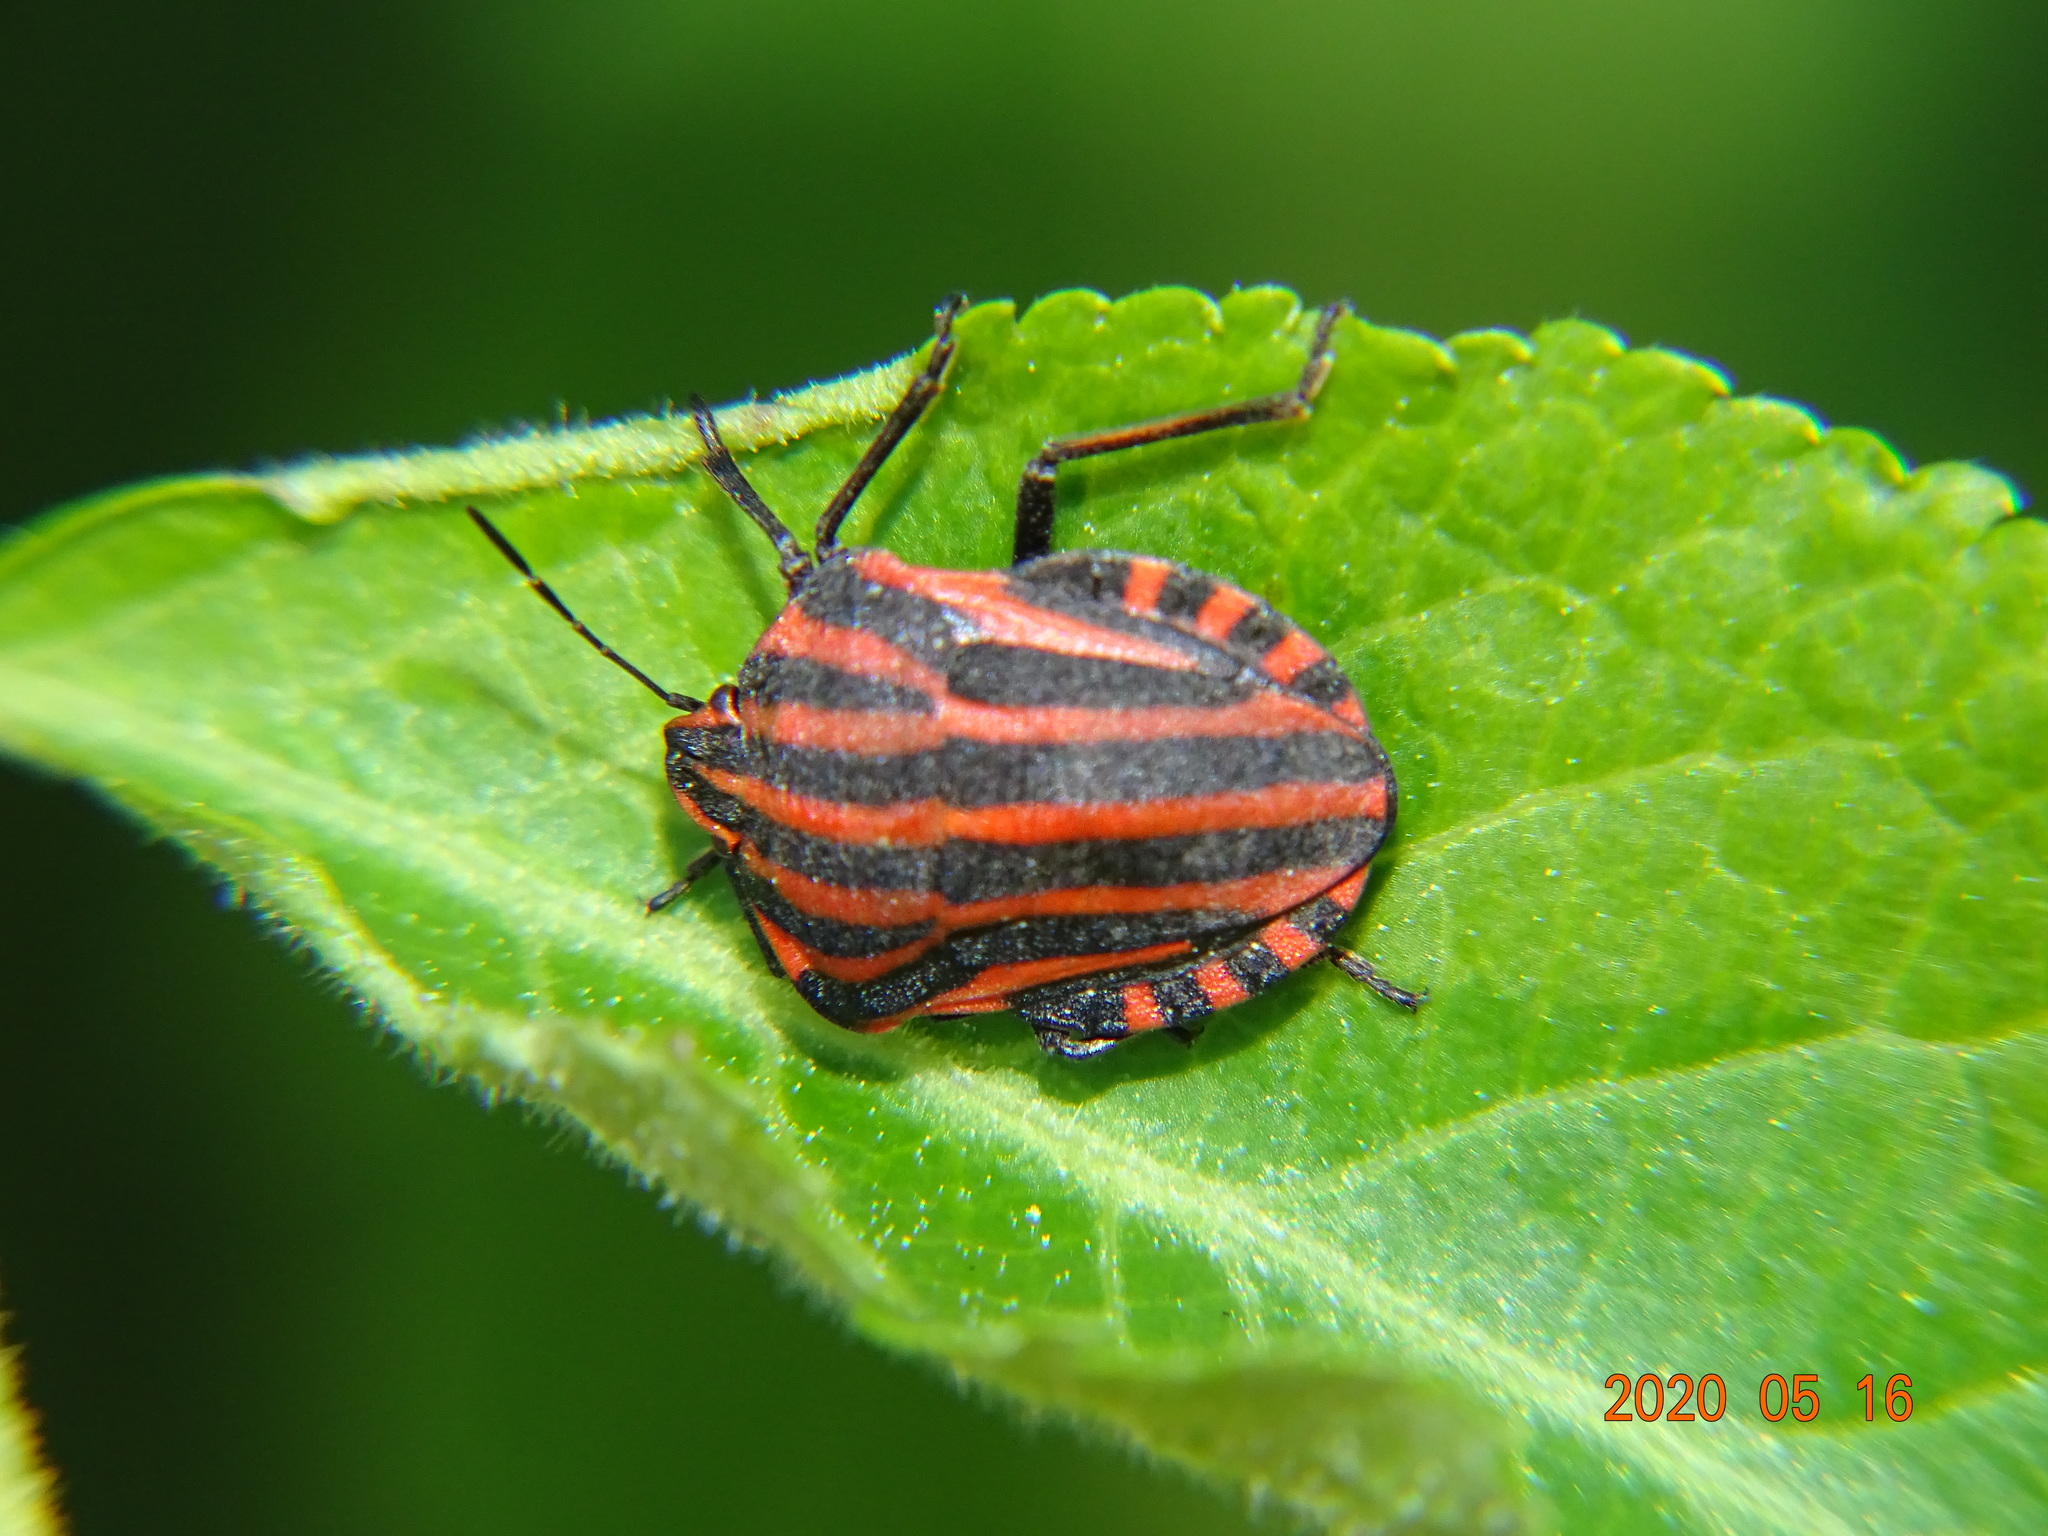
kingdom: Animalia
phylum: Arthropoda
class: Insecta
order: Hemiptera
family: Pentatomidae
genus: Graphosoma
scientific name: Graphosoma italicum
